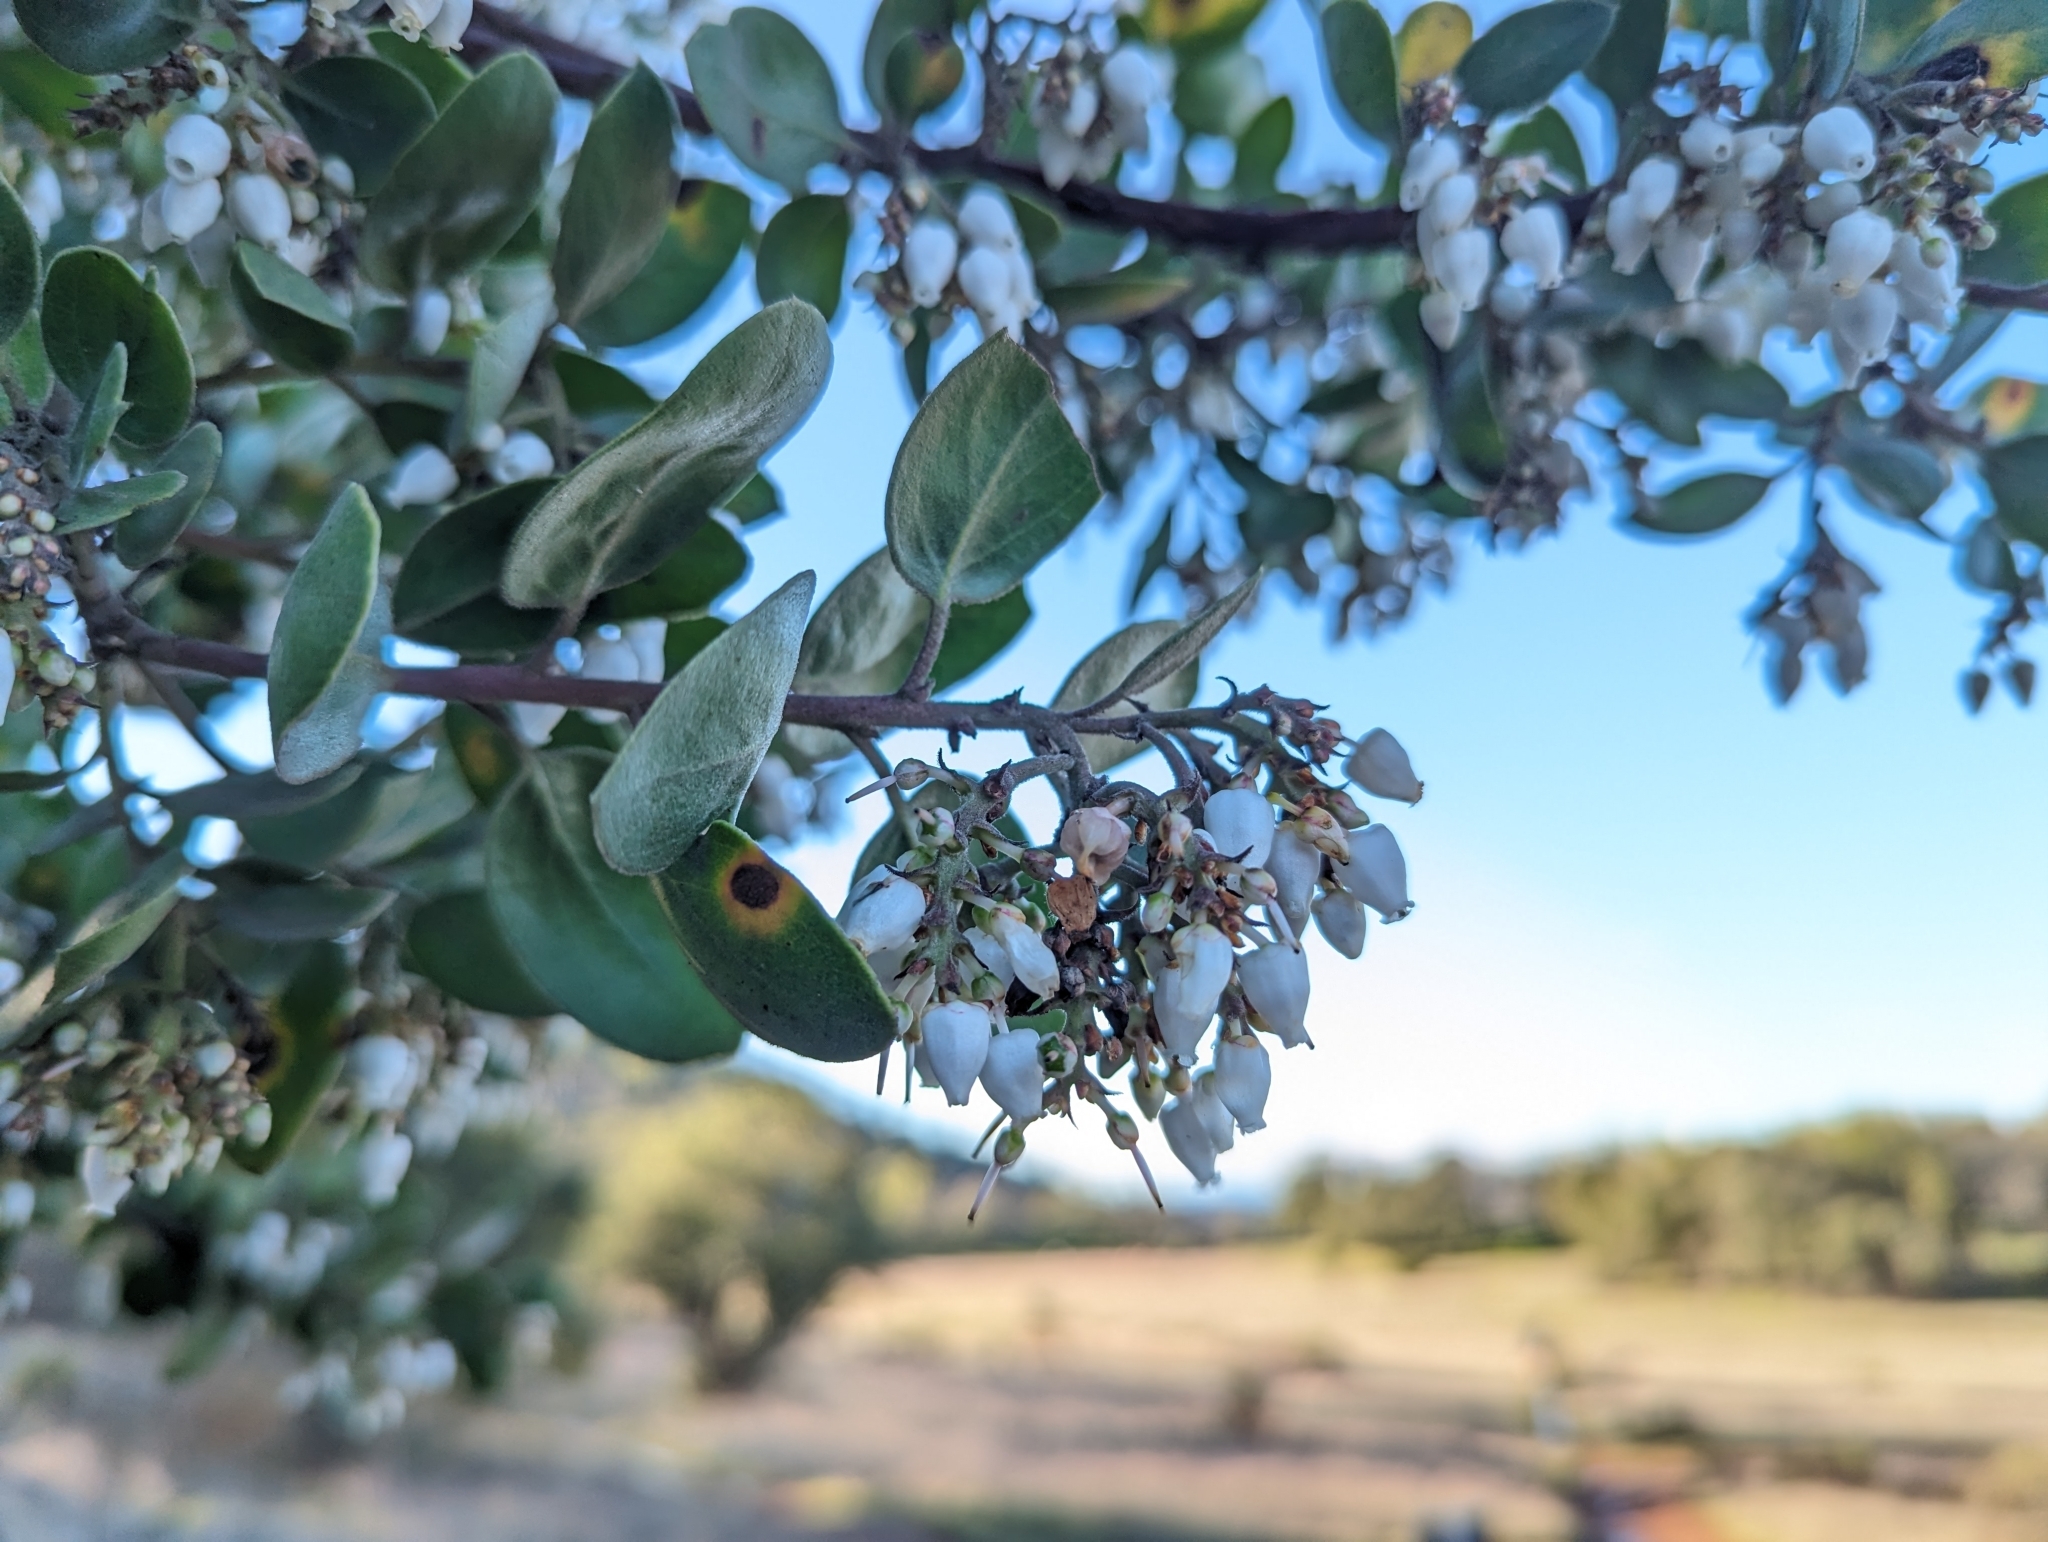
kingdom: Plantae
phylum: Tracheophyta
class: Magnoliopsida
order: Ericales
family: Ericaceae
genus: Arctostaphylos
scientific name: Arctostaphylos manzanita
